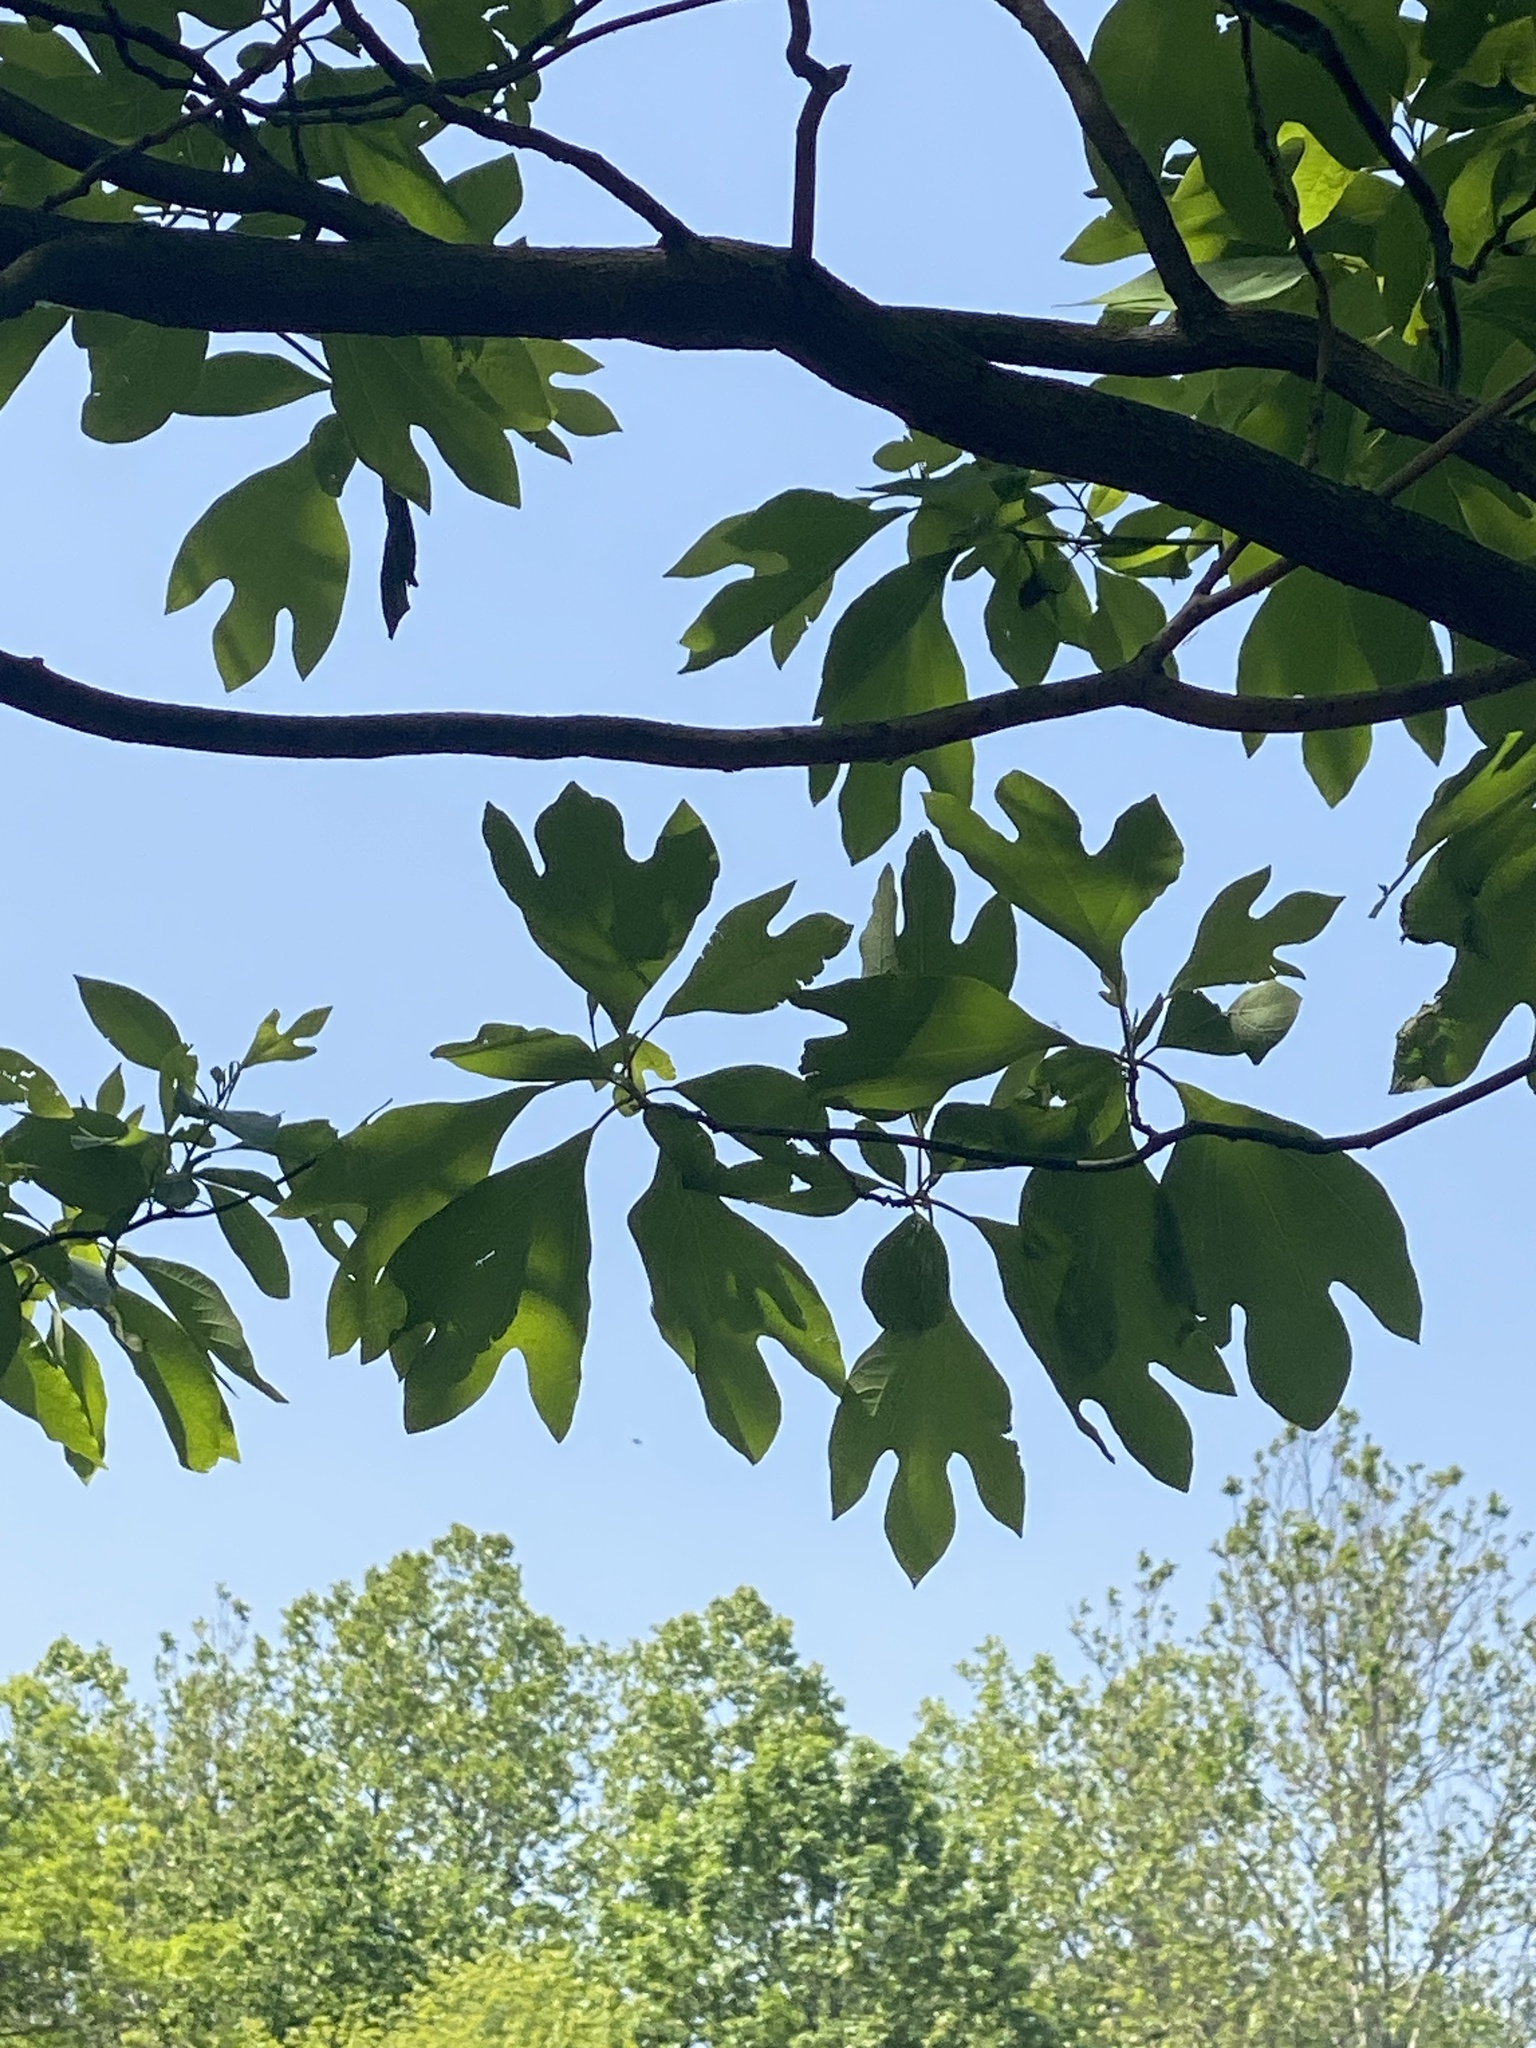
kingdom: Plantae
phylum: Tracheophyta
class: Magnoliopsida
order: Laurales
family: Lauraceae
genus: Sassafras
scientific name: Sassafras albidum
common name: Sassafras
